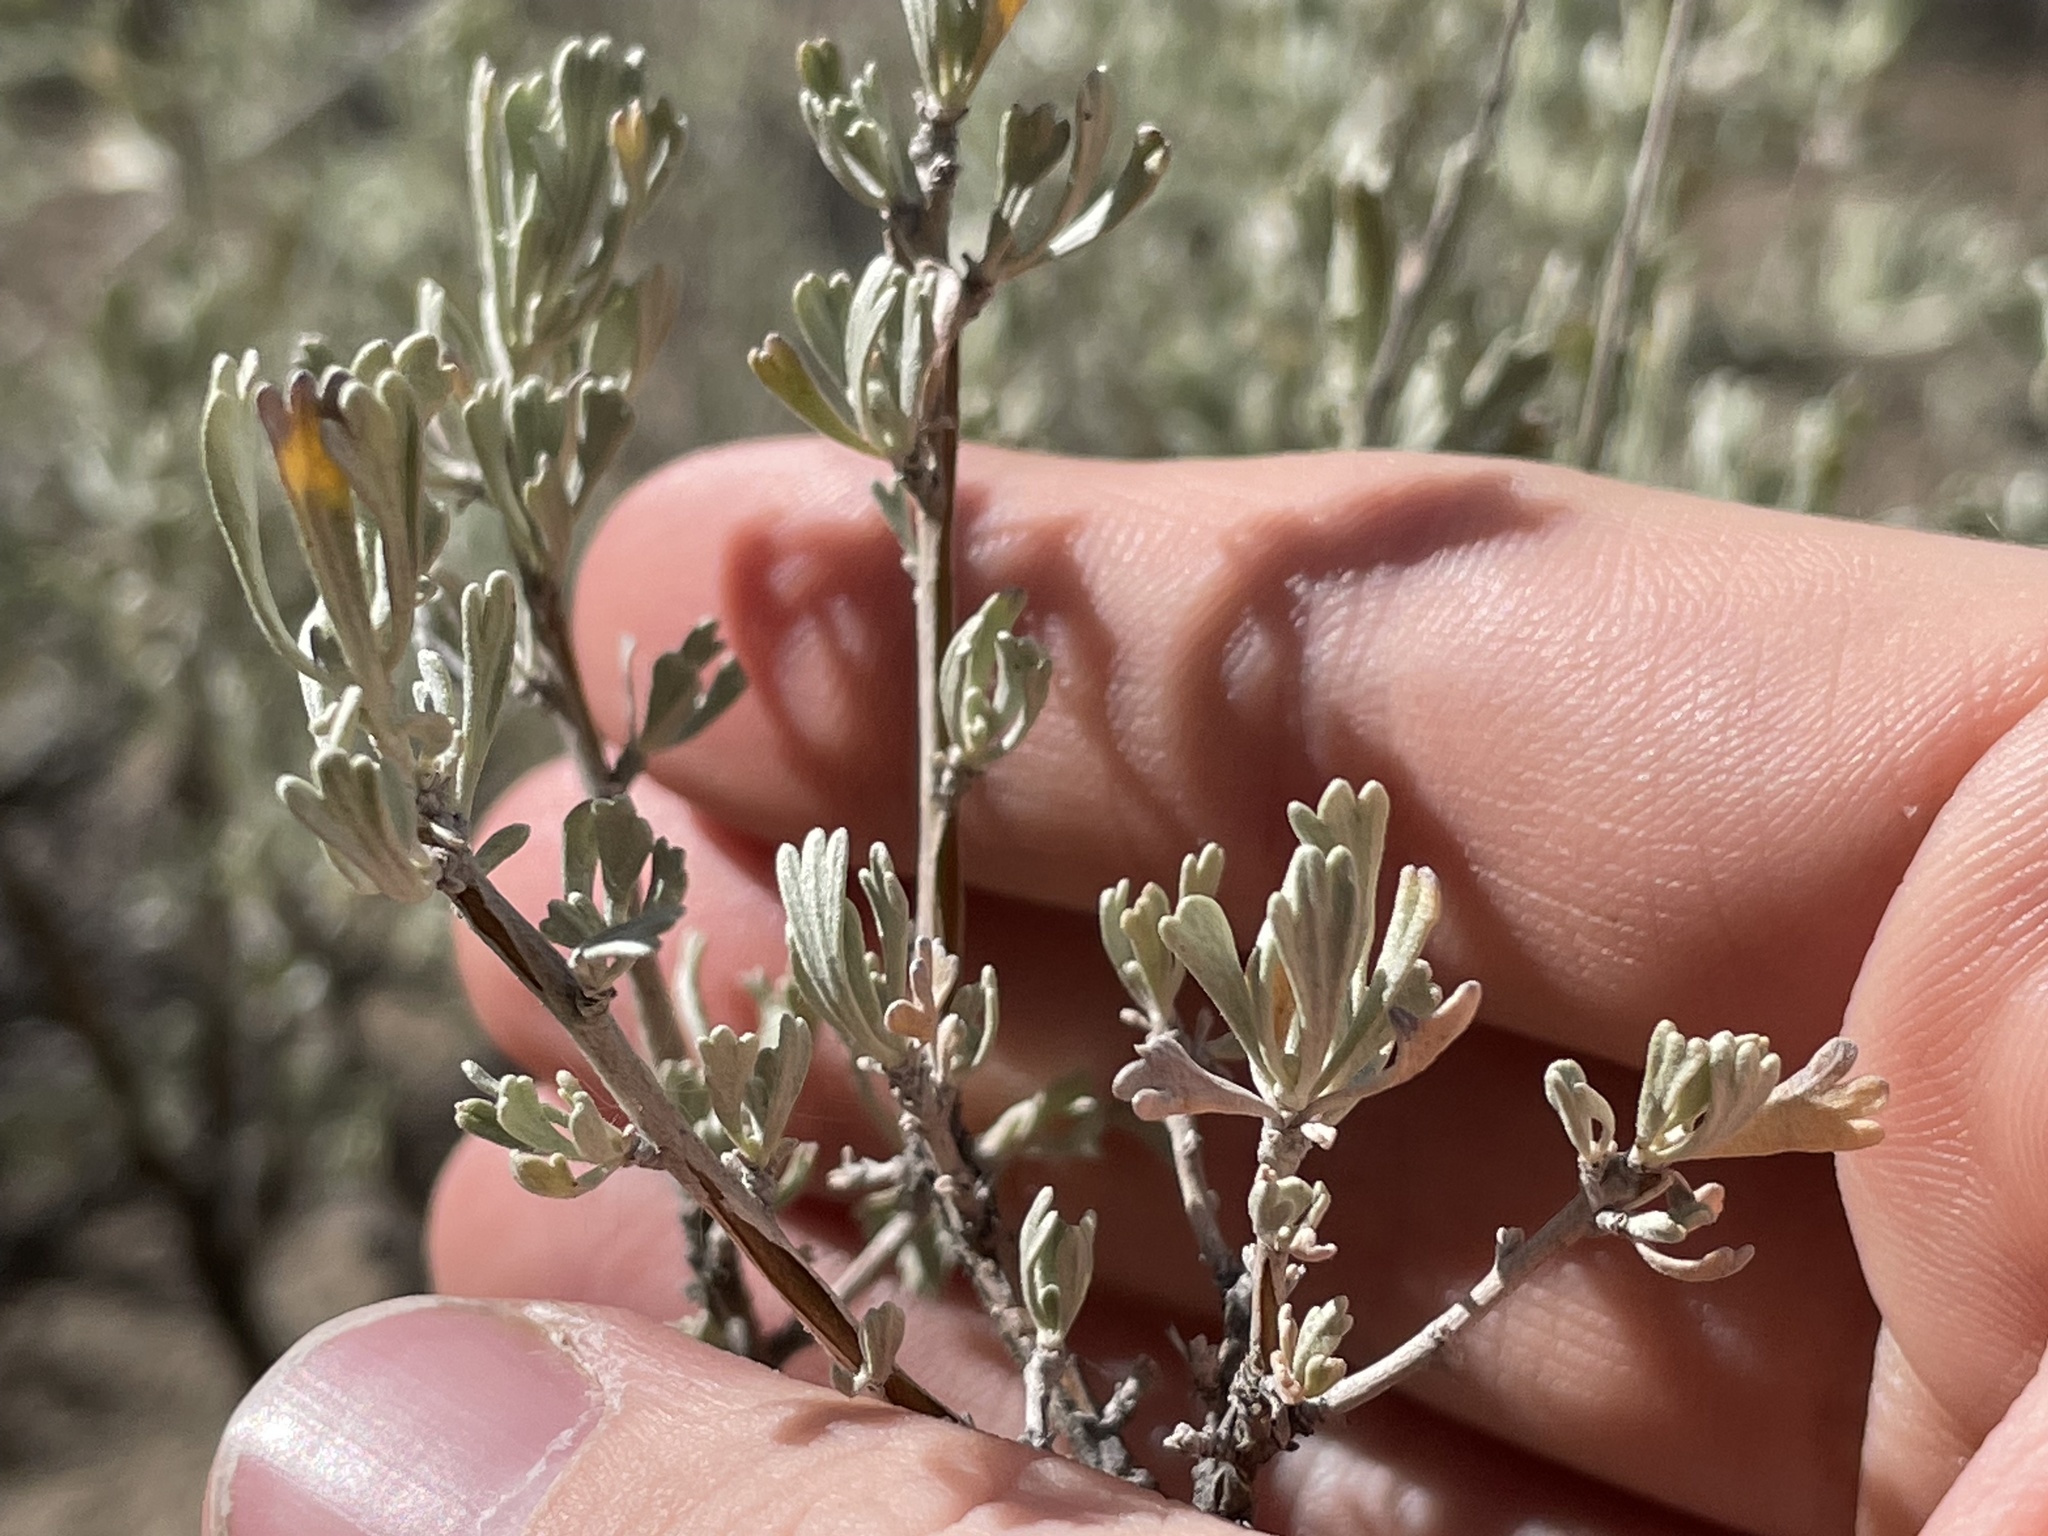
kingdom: Plantae
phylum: Tracheophyta
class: Magnoliopsida
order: Asterales
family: Asteraceae
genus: Artemisia
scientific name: Artemisia tridentata
